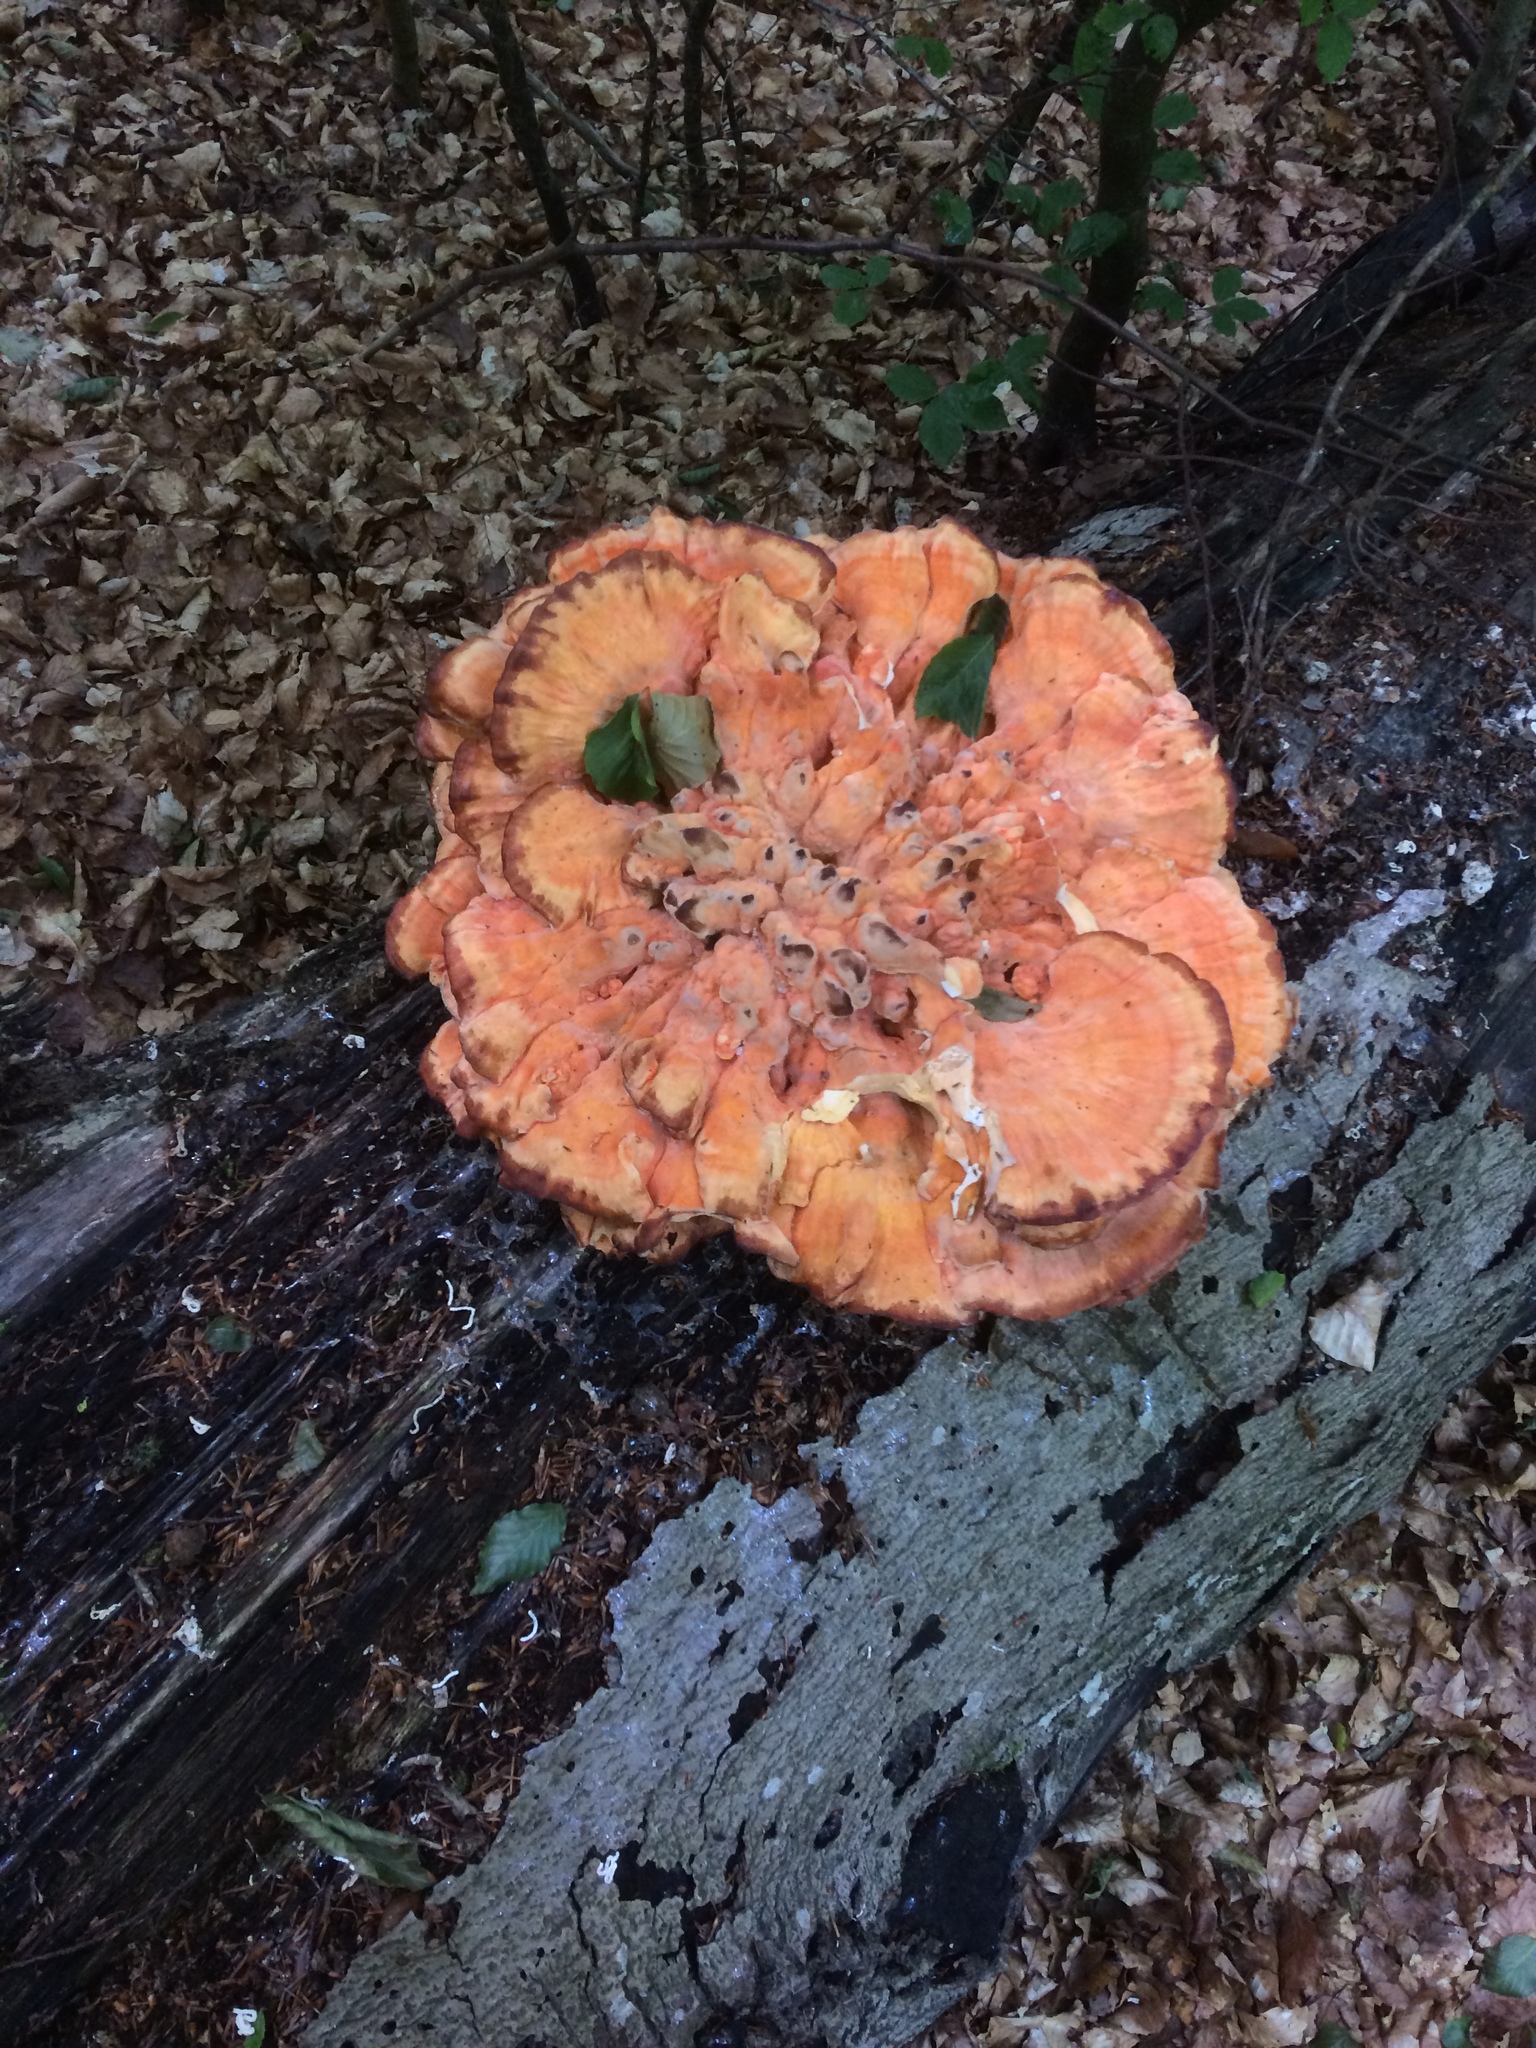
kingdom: Fungi
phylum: Basidiomycota
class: Agaricomycetes
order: Polyporales
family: Laetiporaceae
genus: Laetiporus
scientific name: Laetiporus sulphureus
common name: Chicken of the woods
